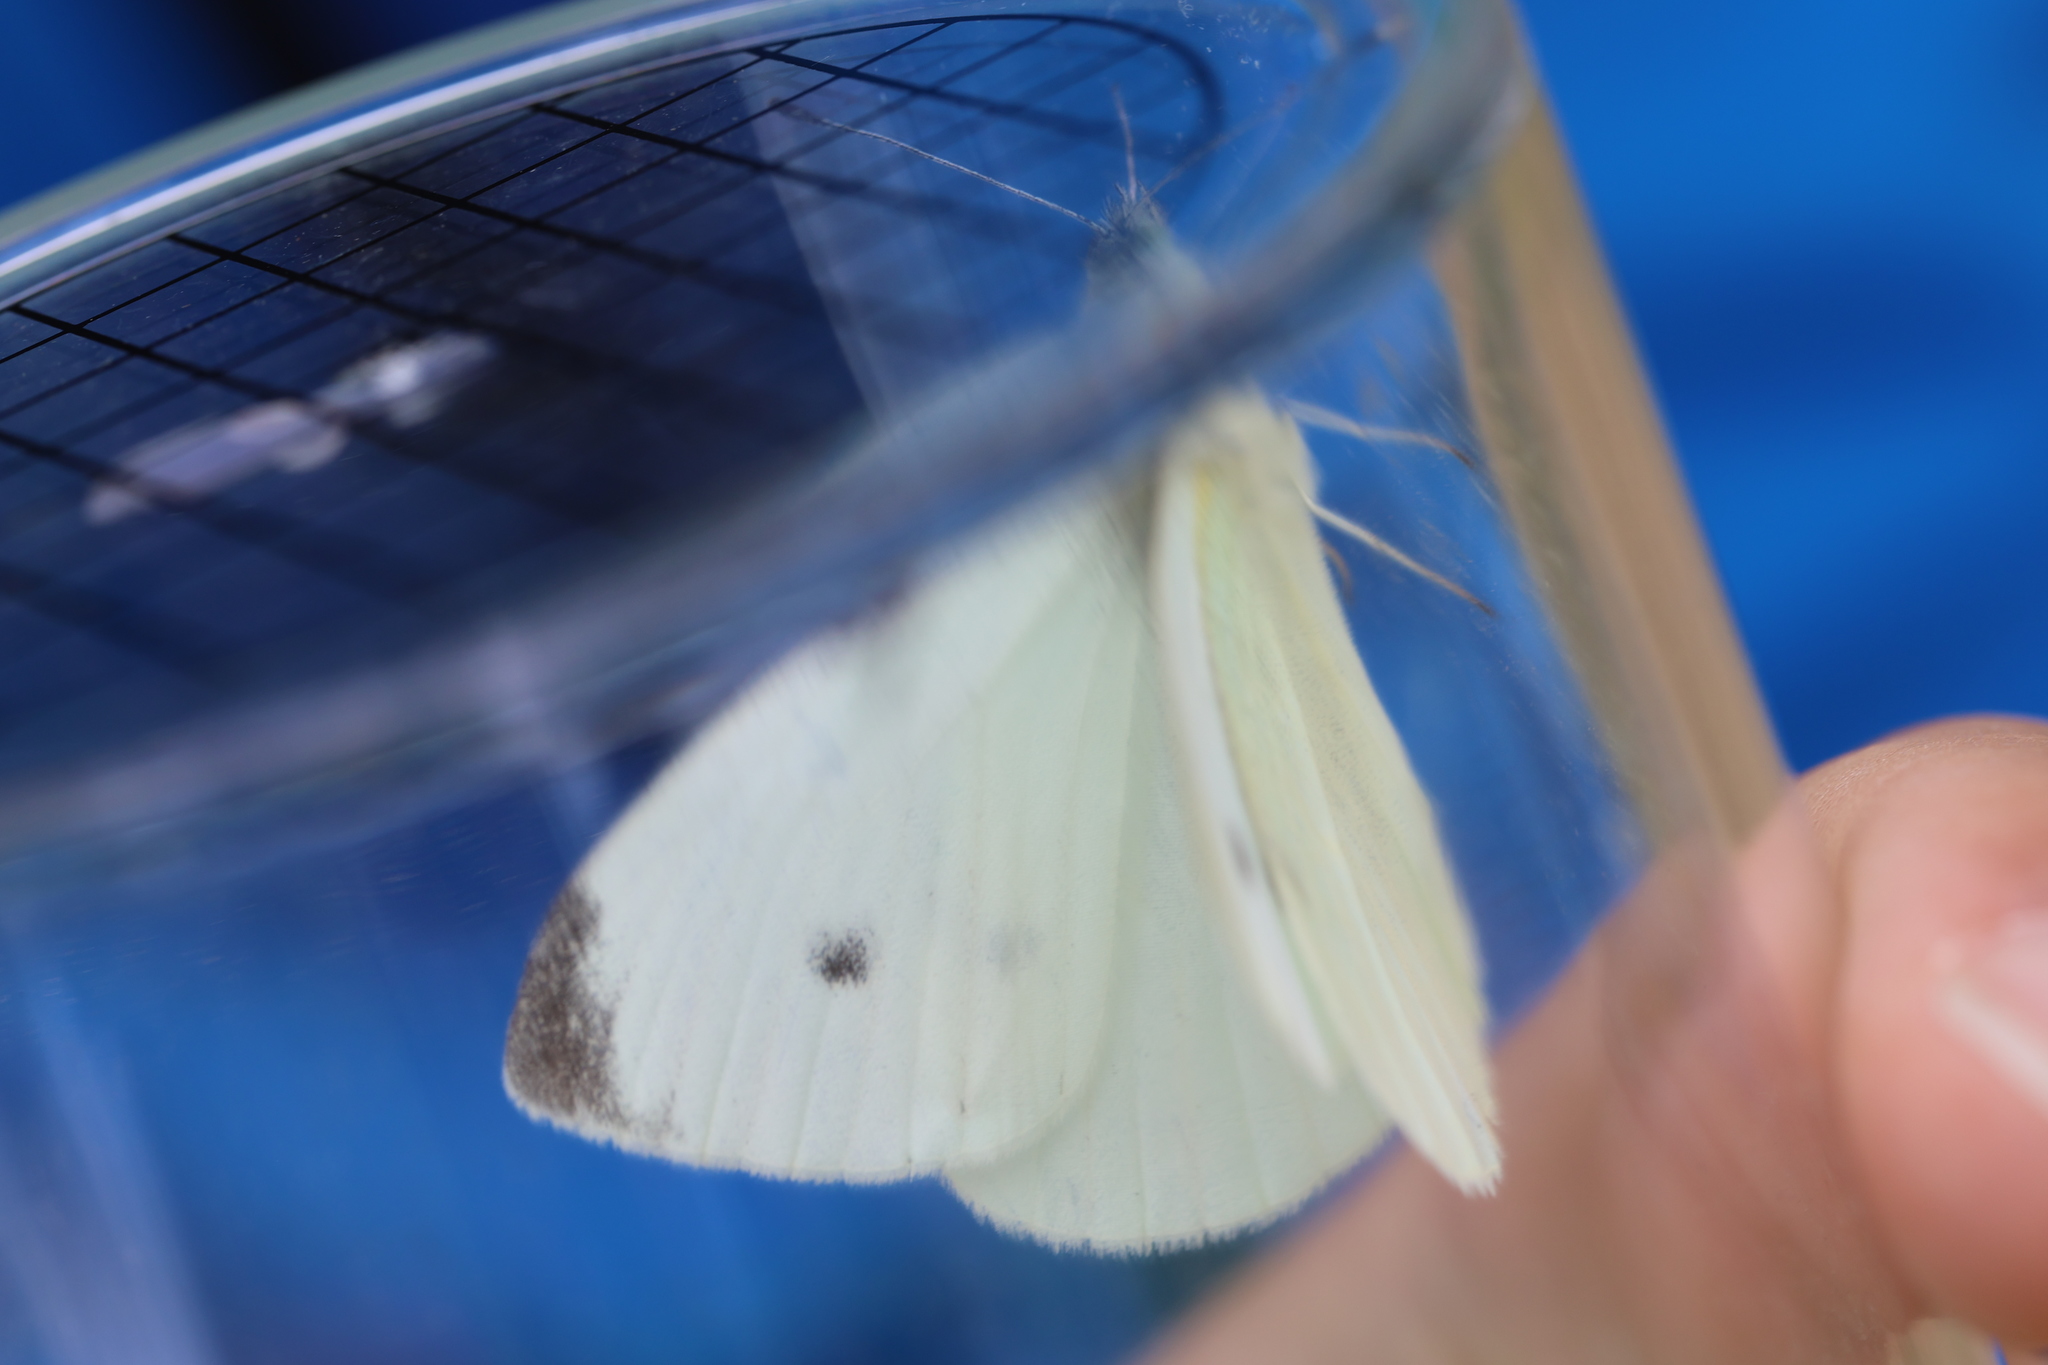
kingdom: Animalia
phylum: Arthropoda
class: Insecta
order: Lepidoptera
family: Pieridae
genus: Pieris
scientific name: Pieris rapae
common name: Small white
